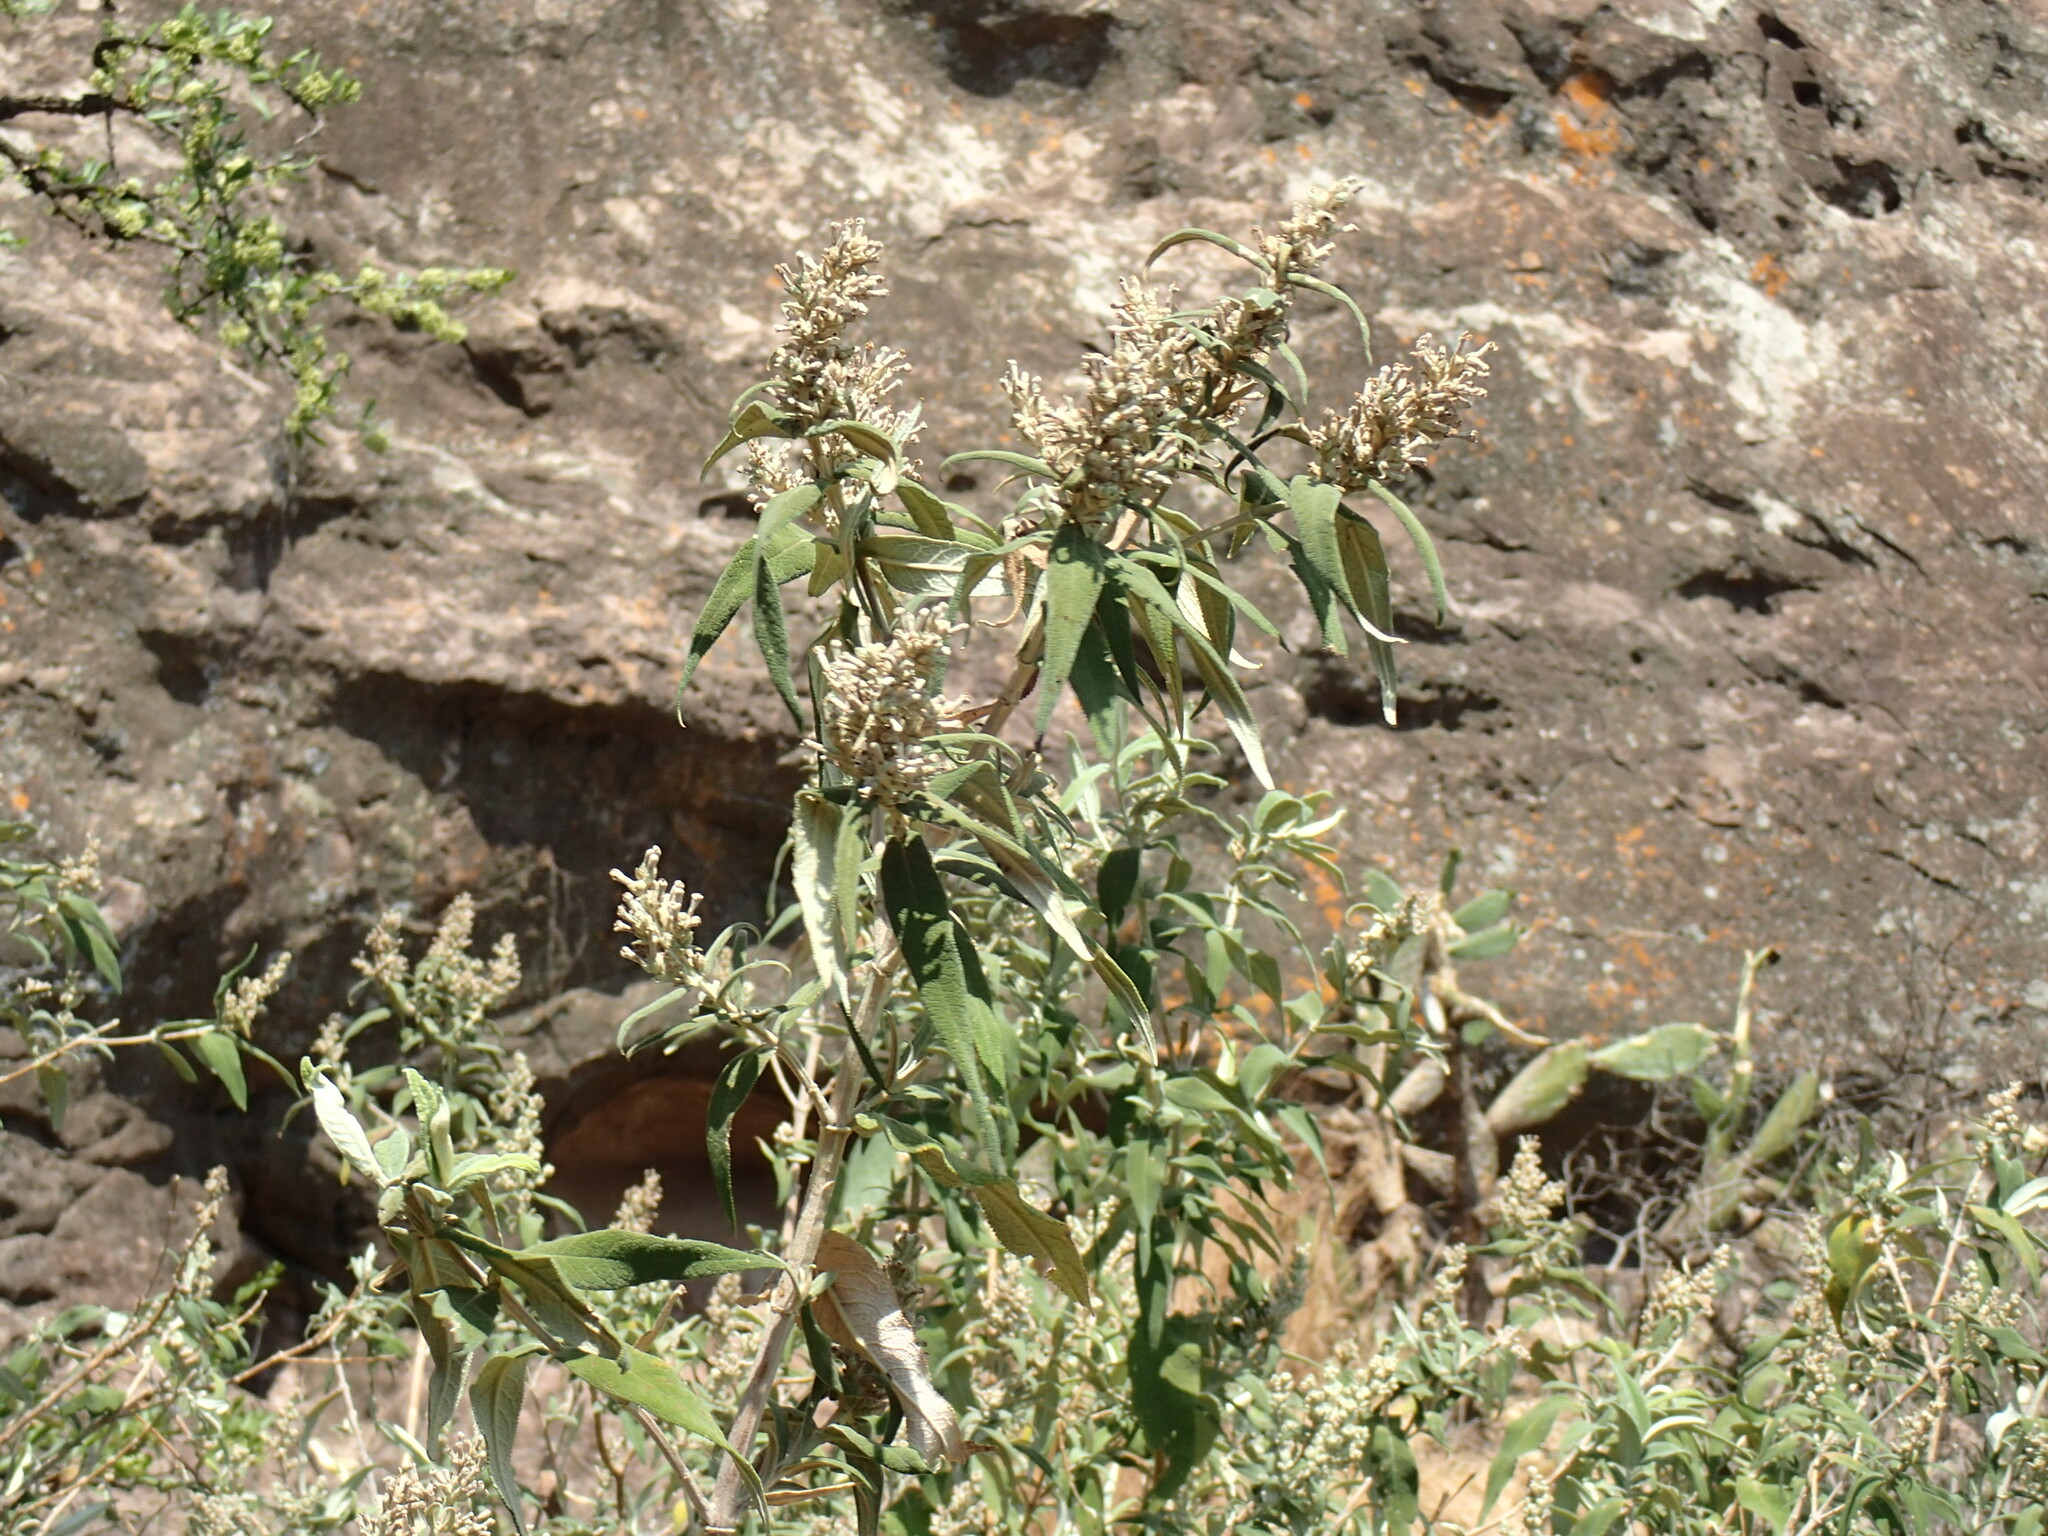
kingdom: Plantae
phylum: Tracheophyta
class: Magnoliopsida
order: Lamiales
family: Scrophulariaceae
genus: Buddleja
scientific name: Buddleja salviifolia
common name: Sagewood
